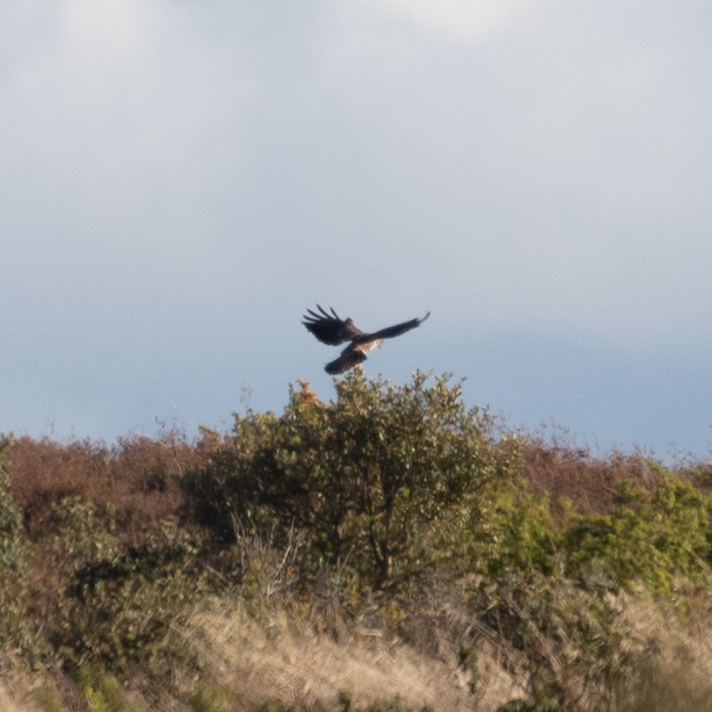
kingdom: Animalia
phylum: Chordata
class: Aves
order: Accipitriformes
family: Accipitridae
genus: Buteo
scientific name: Buteo buteo
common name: Common buzzard
